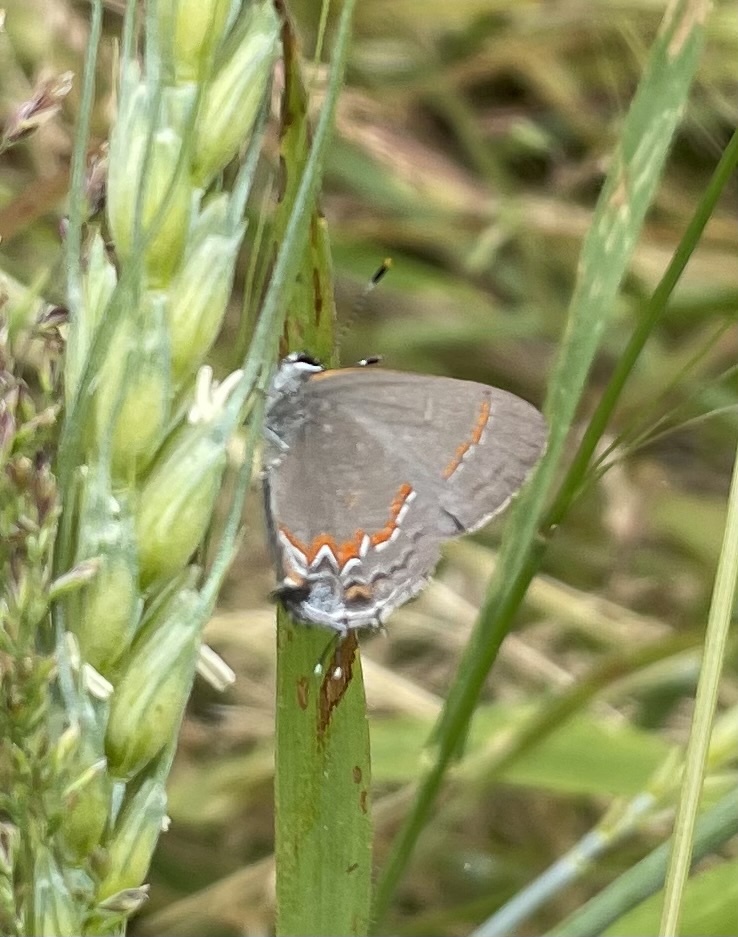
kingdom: Animalia
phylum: Arthropoda
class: Insecta
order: Lepidoptera
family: Lycaenidae
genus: Calycopis
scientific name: Calycopis cecrops
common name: Red-banded hairstreak
